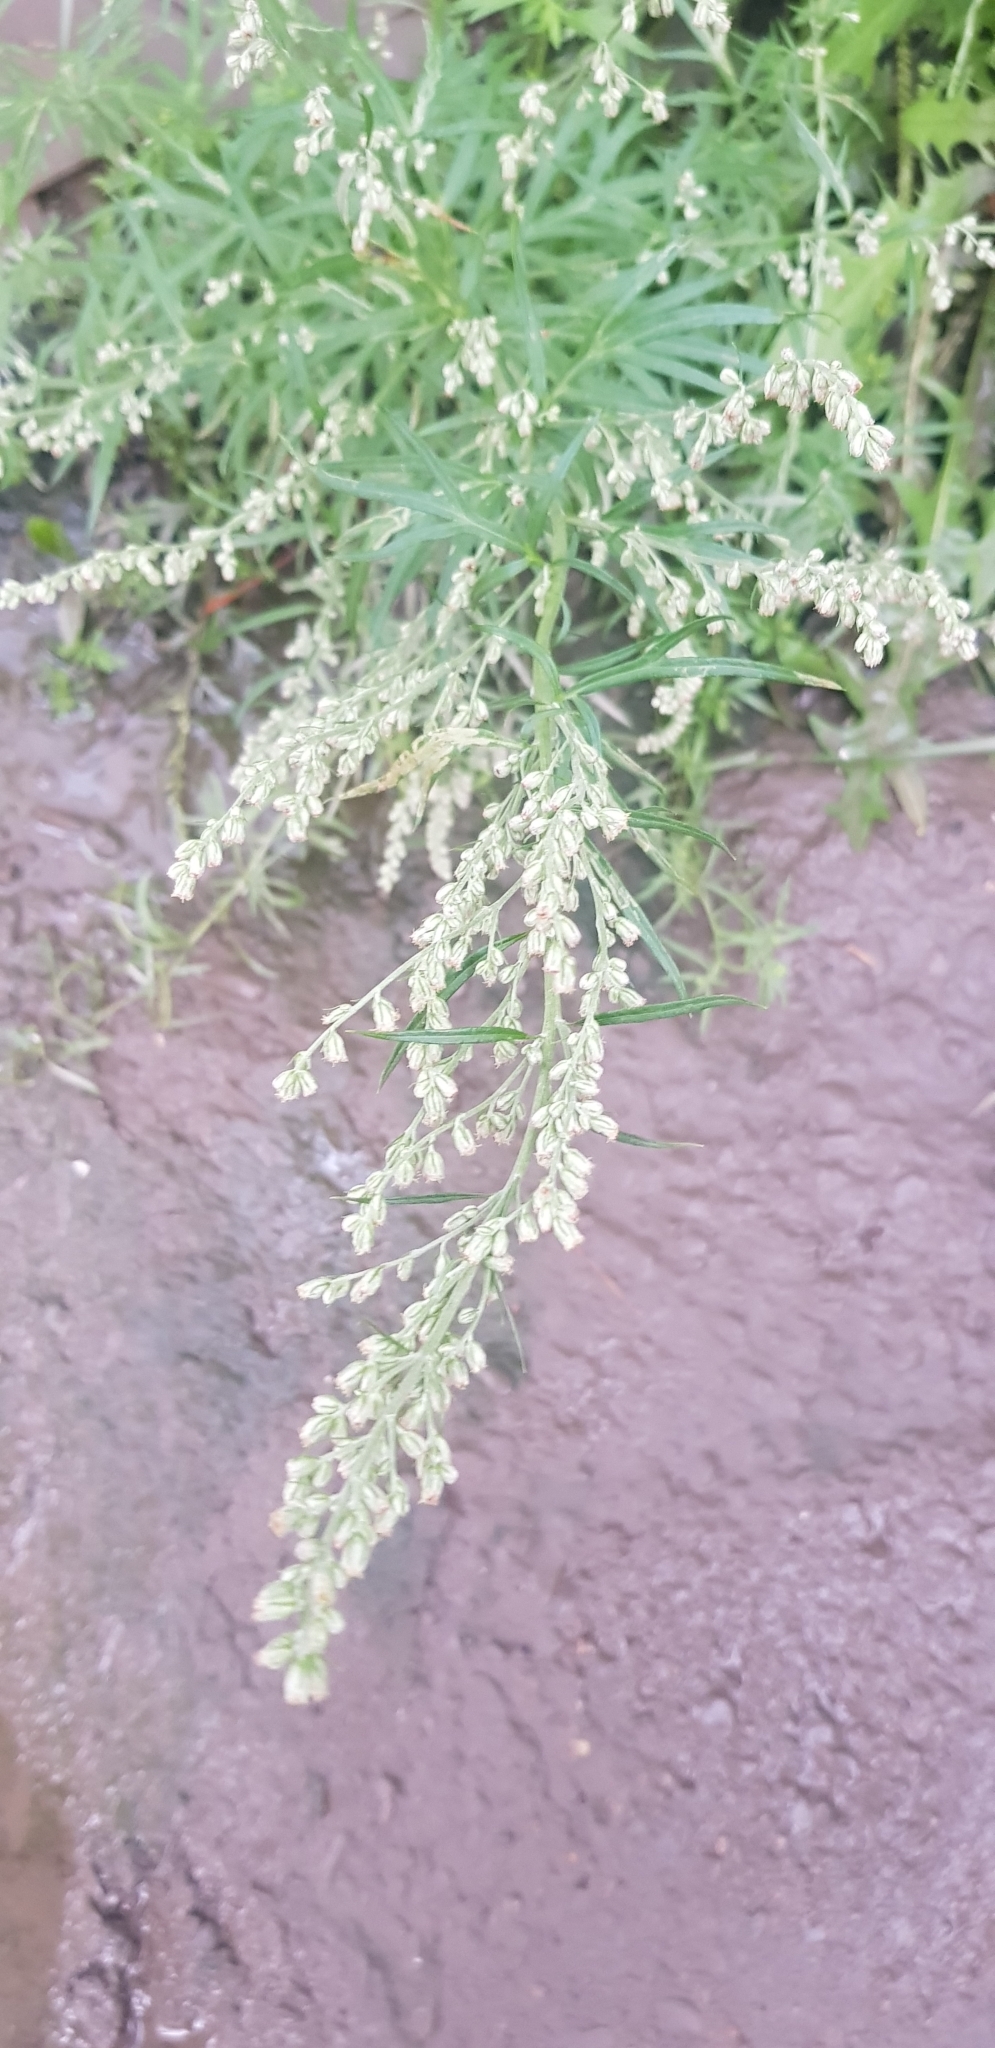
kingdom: Plantae
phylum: Tracheophyta
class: Magnoliopsida
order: Asterales
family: Asteraceae
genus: Artemisia
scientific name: Artemisia sieversiana
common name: Sieversian wormwood
